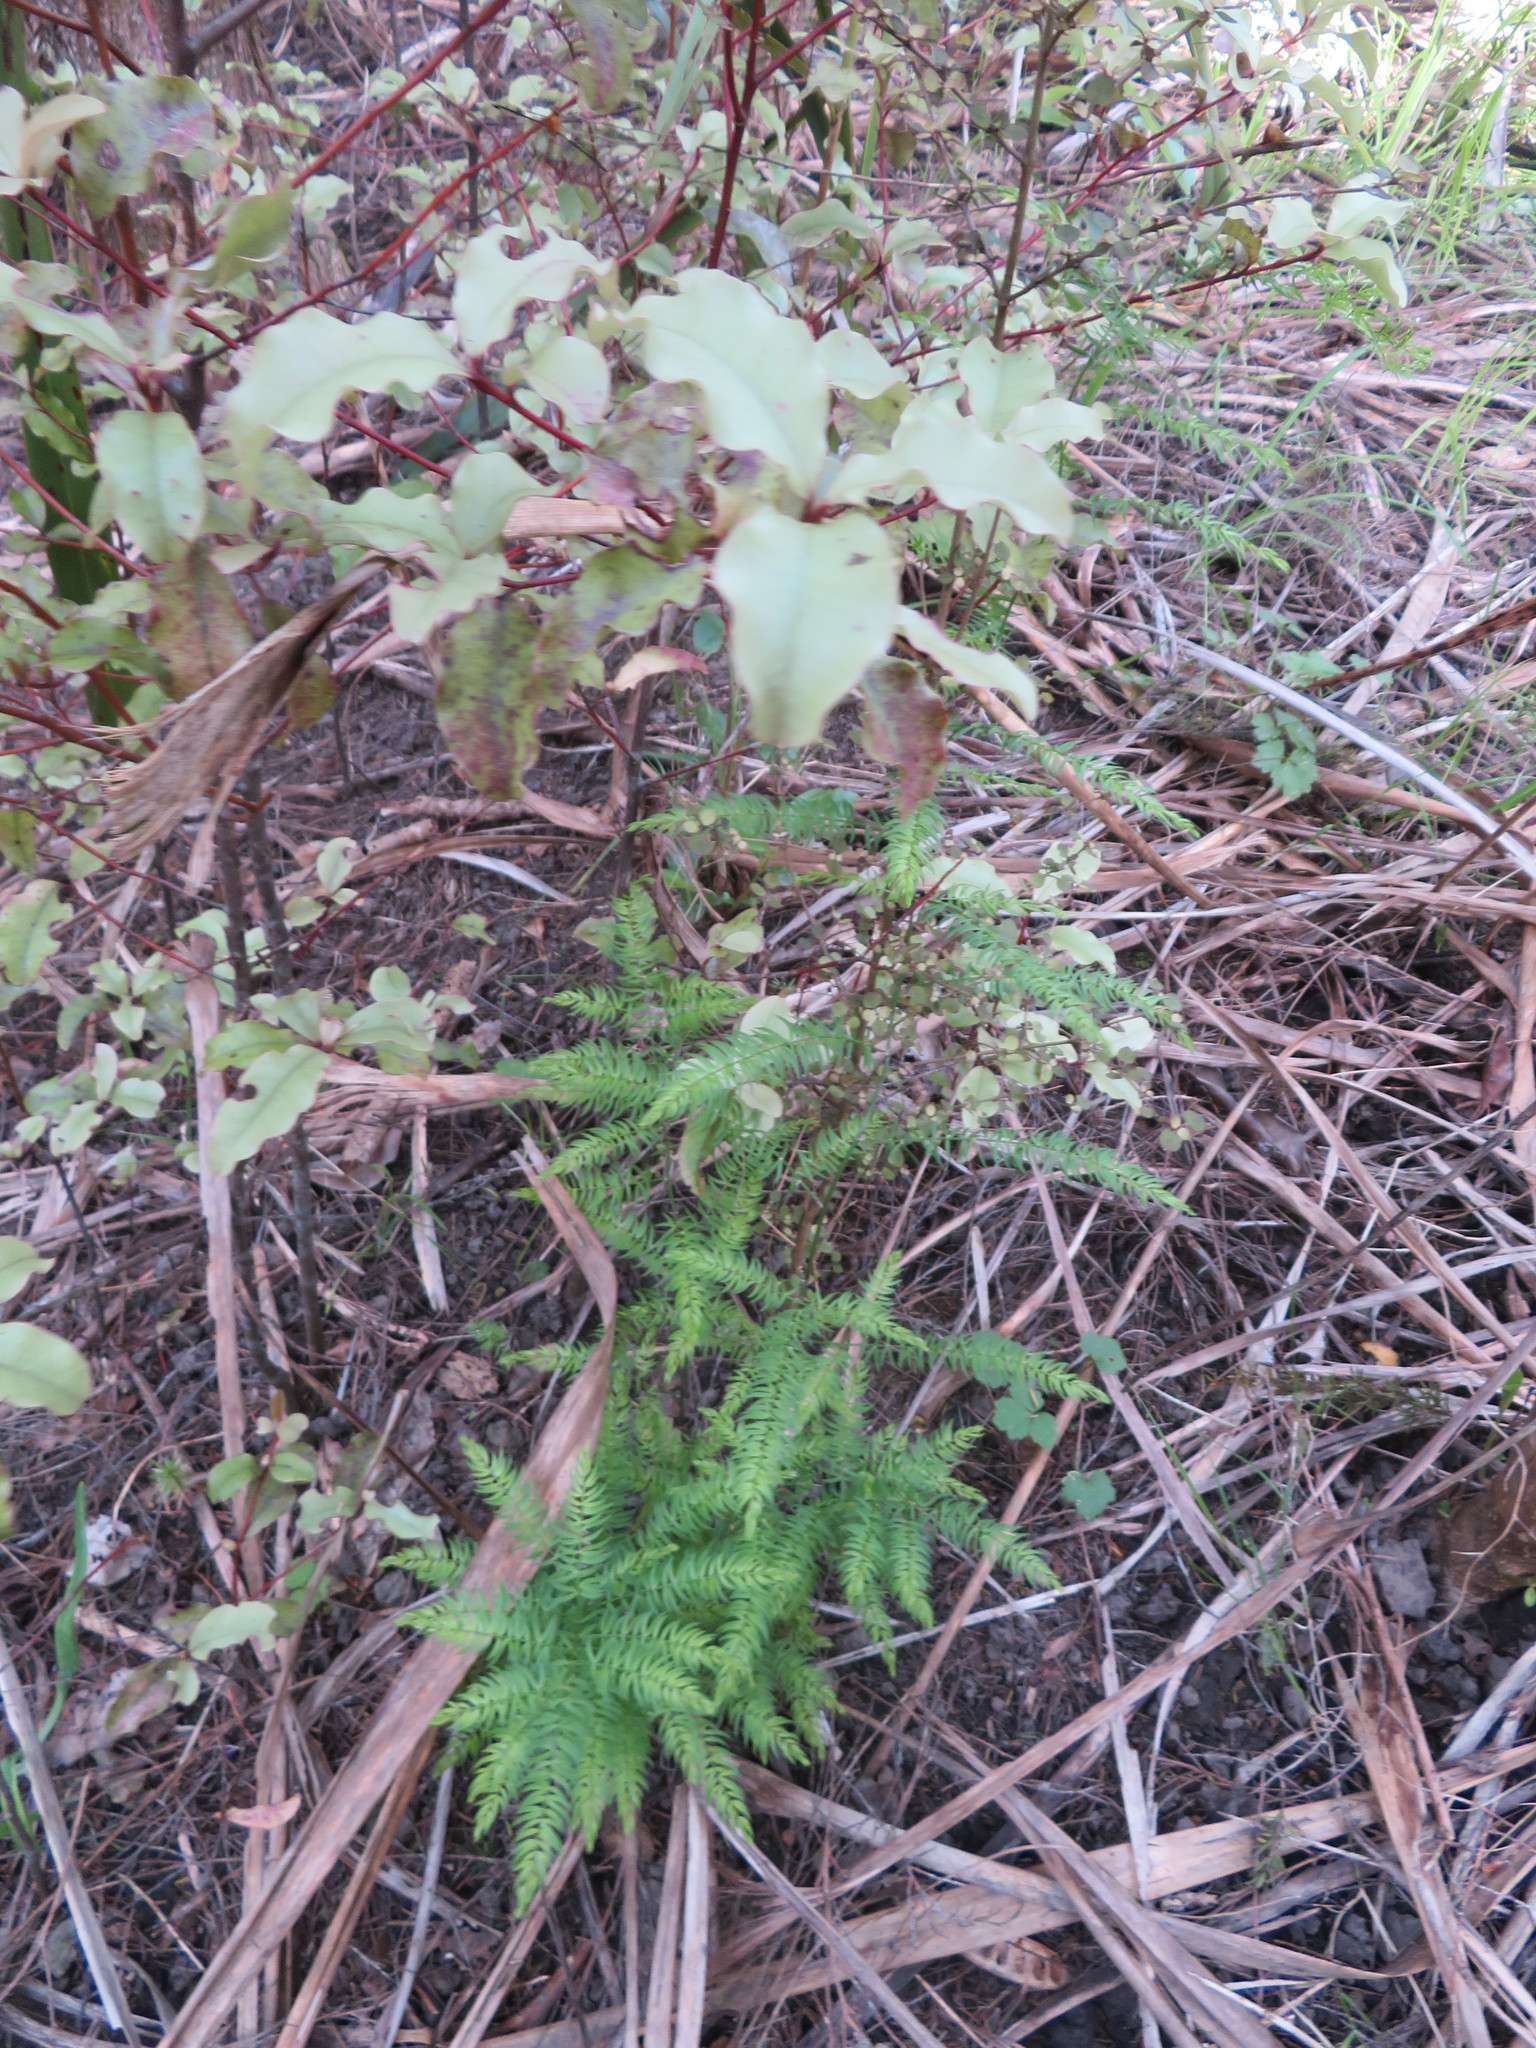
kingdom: Plantae
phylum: Tracheophyta
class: Liliopsida
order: Asparagales
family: Asparagaceae
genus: Asparagus
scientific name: Asparagus scandens
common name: Asparagus-fern
